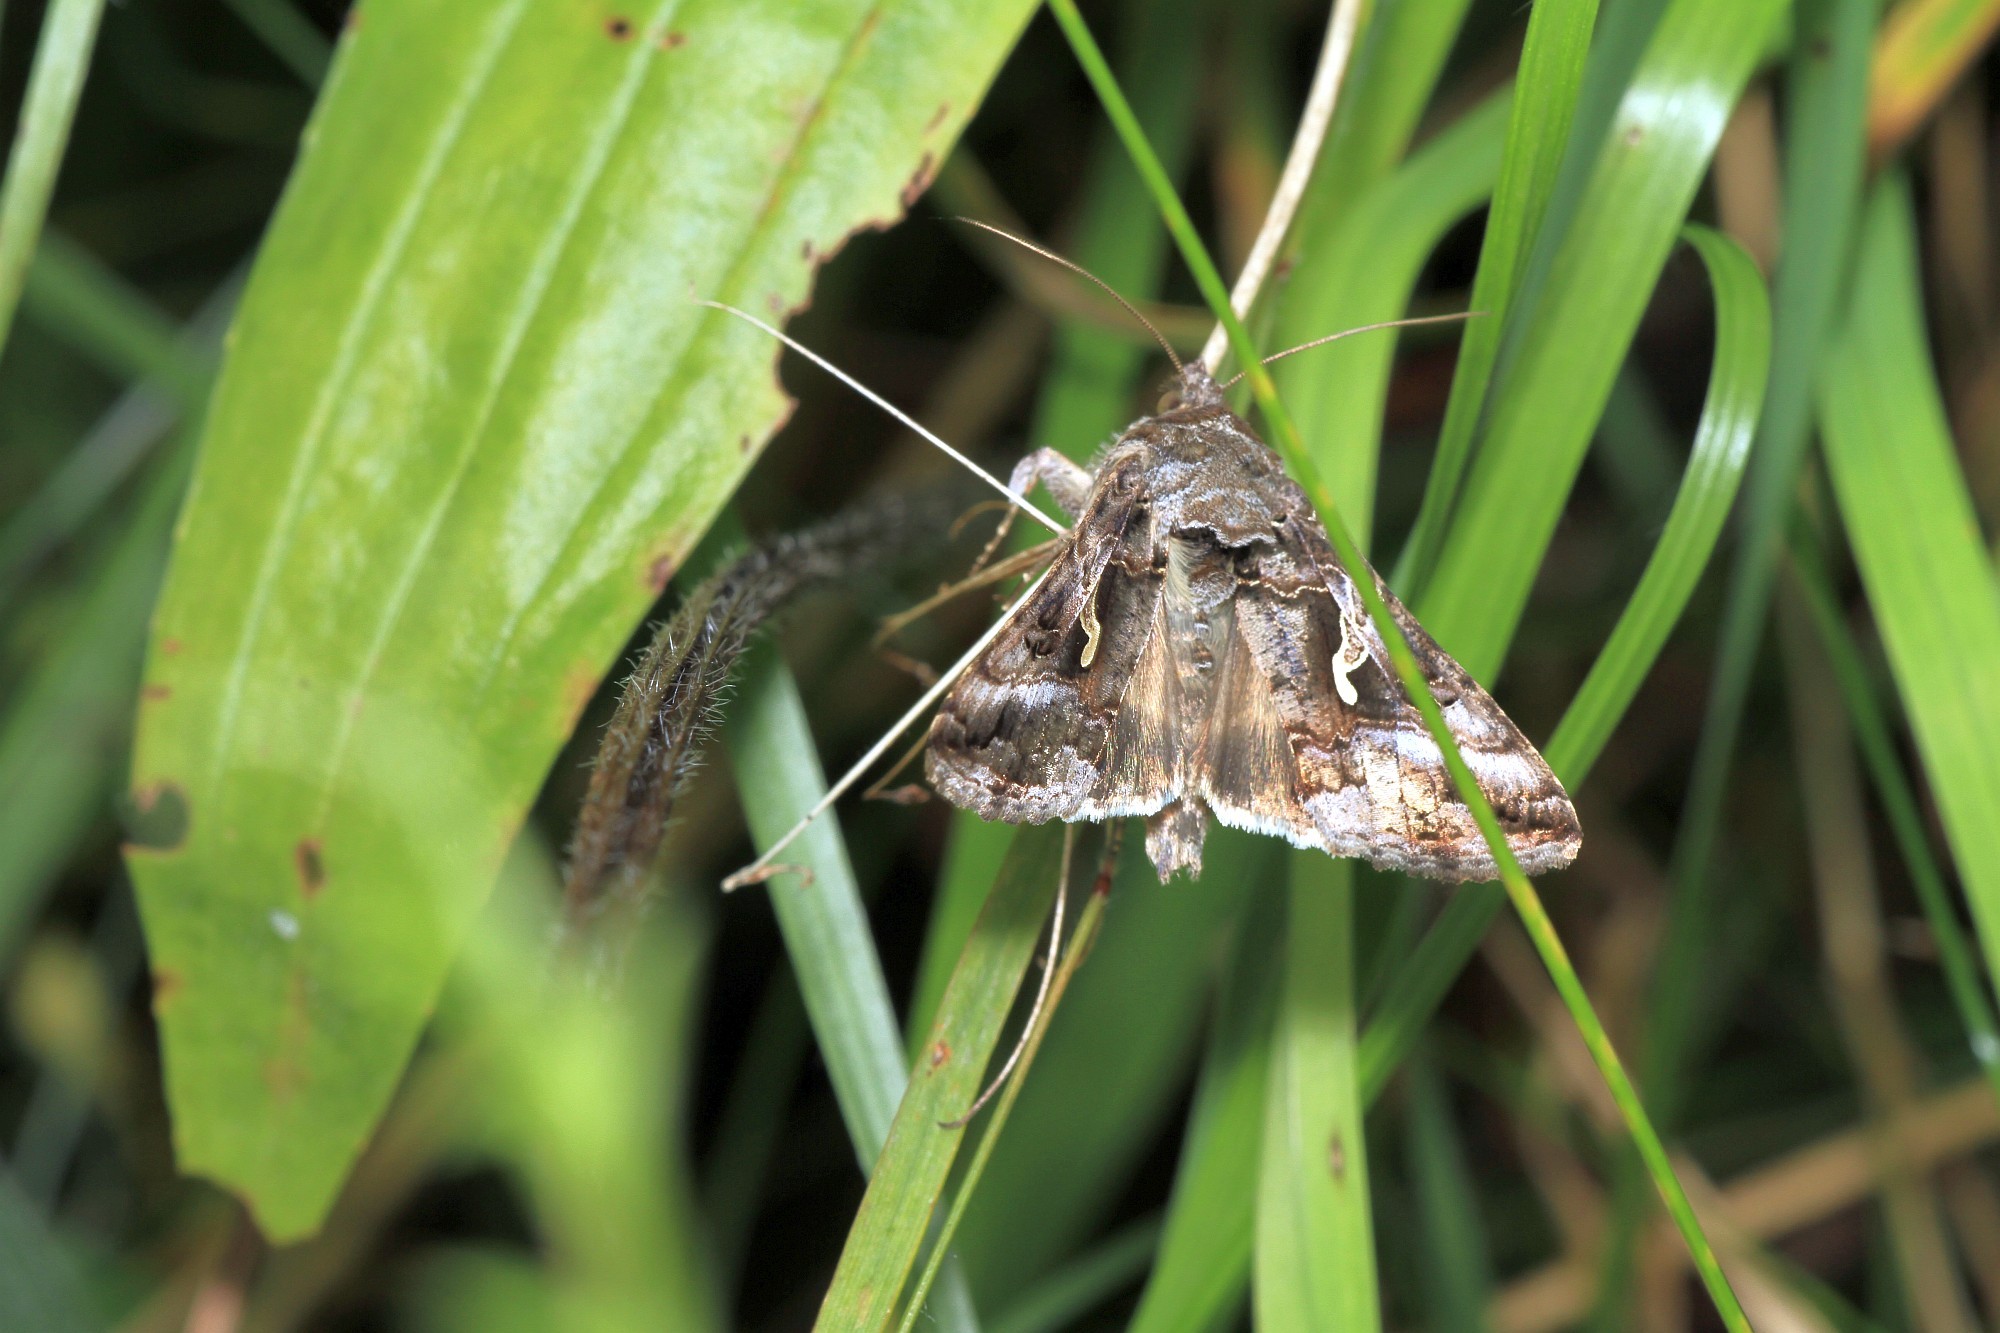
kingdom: Animalia
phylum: Arthropoda
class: Insecta
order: Lepidoptera
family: Noctuidae
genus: Autographa
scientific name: Autographa gamma
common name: Silver y
